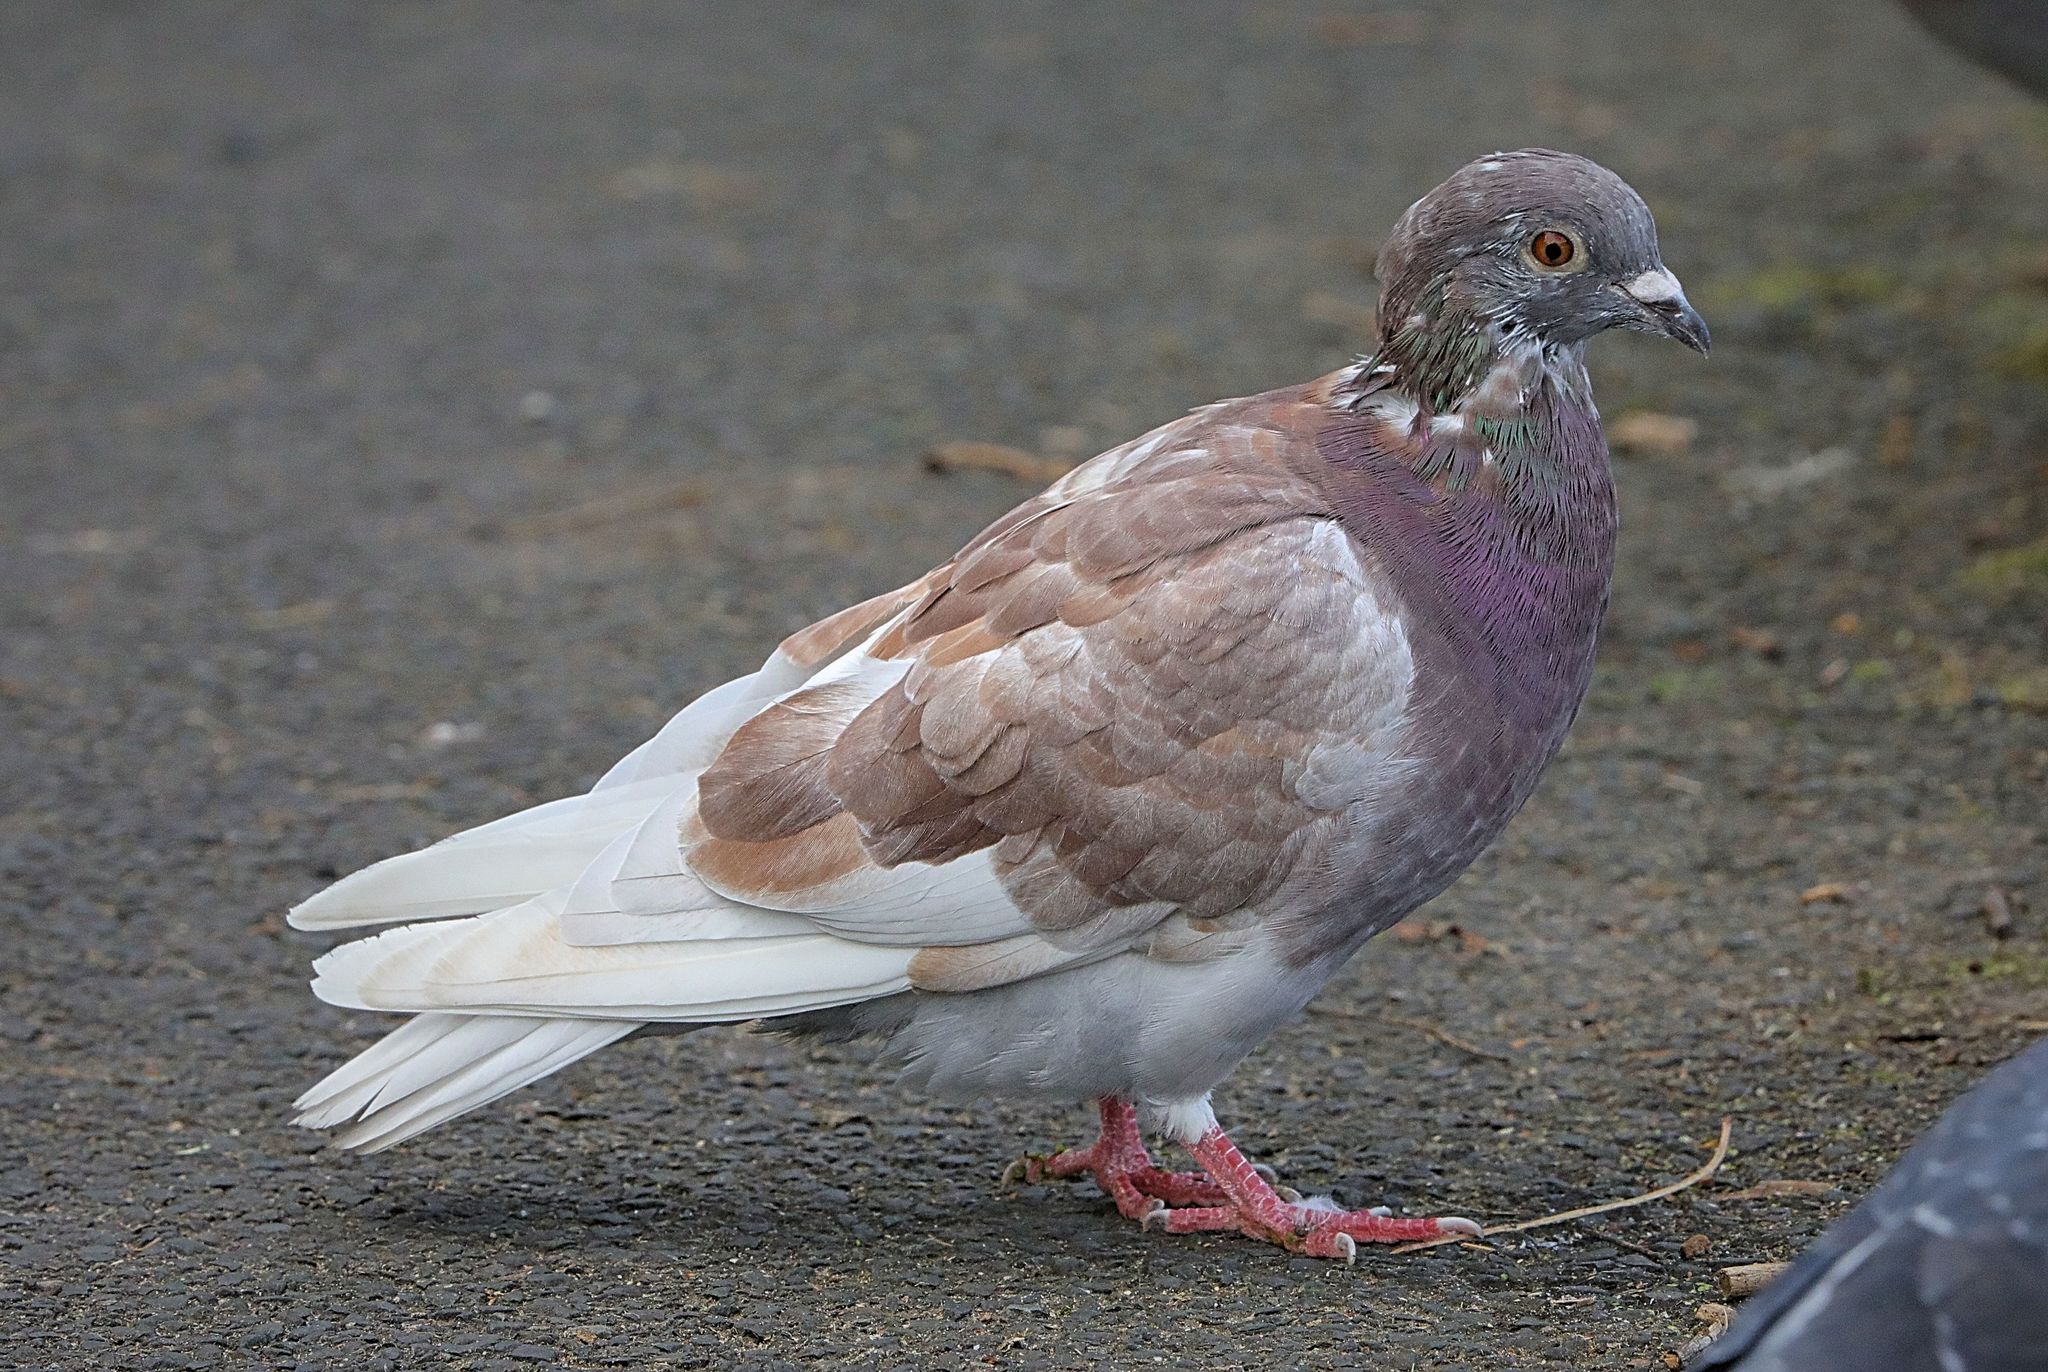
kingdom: Animalia
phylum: Chordata
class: Aves
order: Columbiformes
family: Columbidae
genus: Columba
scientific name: Columba livia
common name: Rock pigeon
